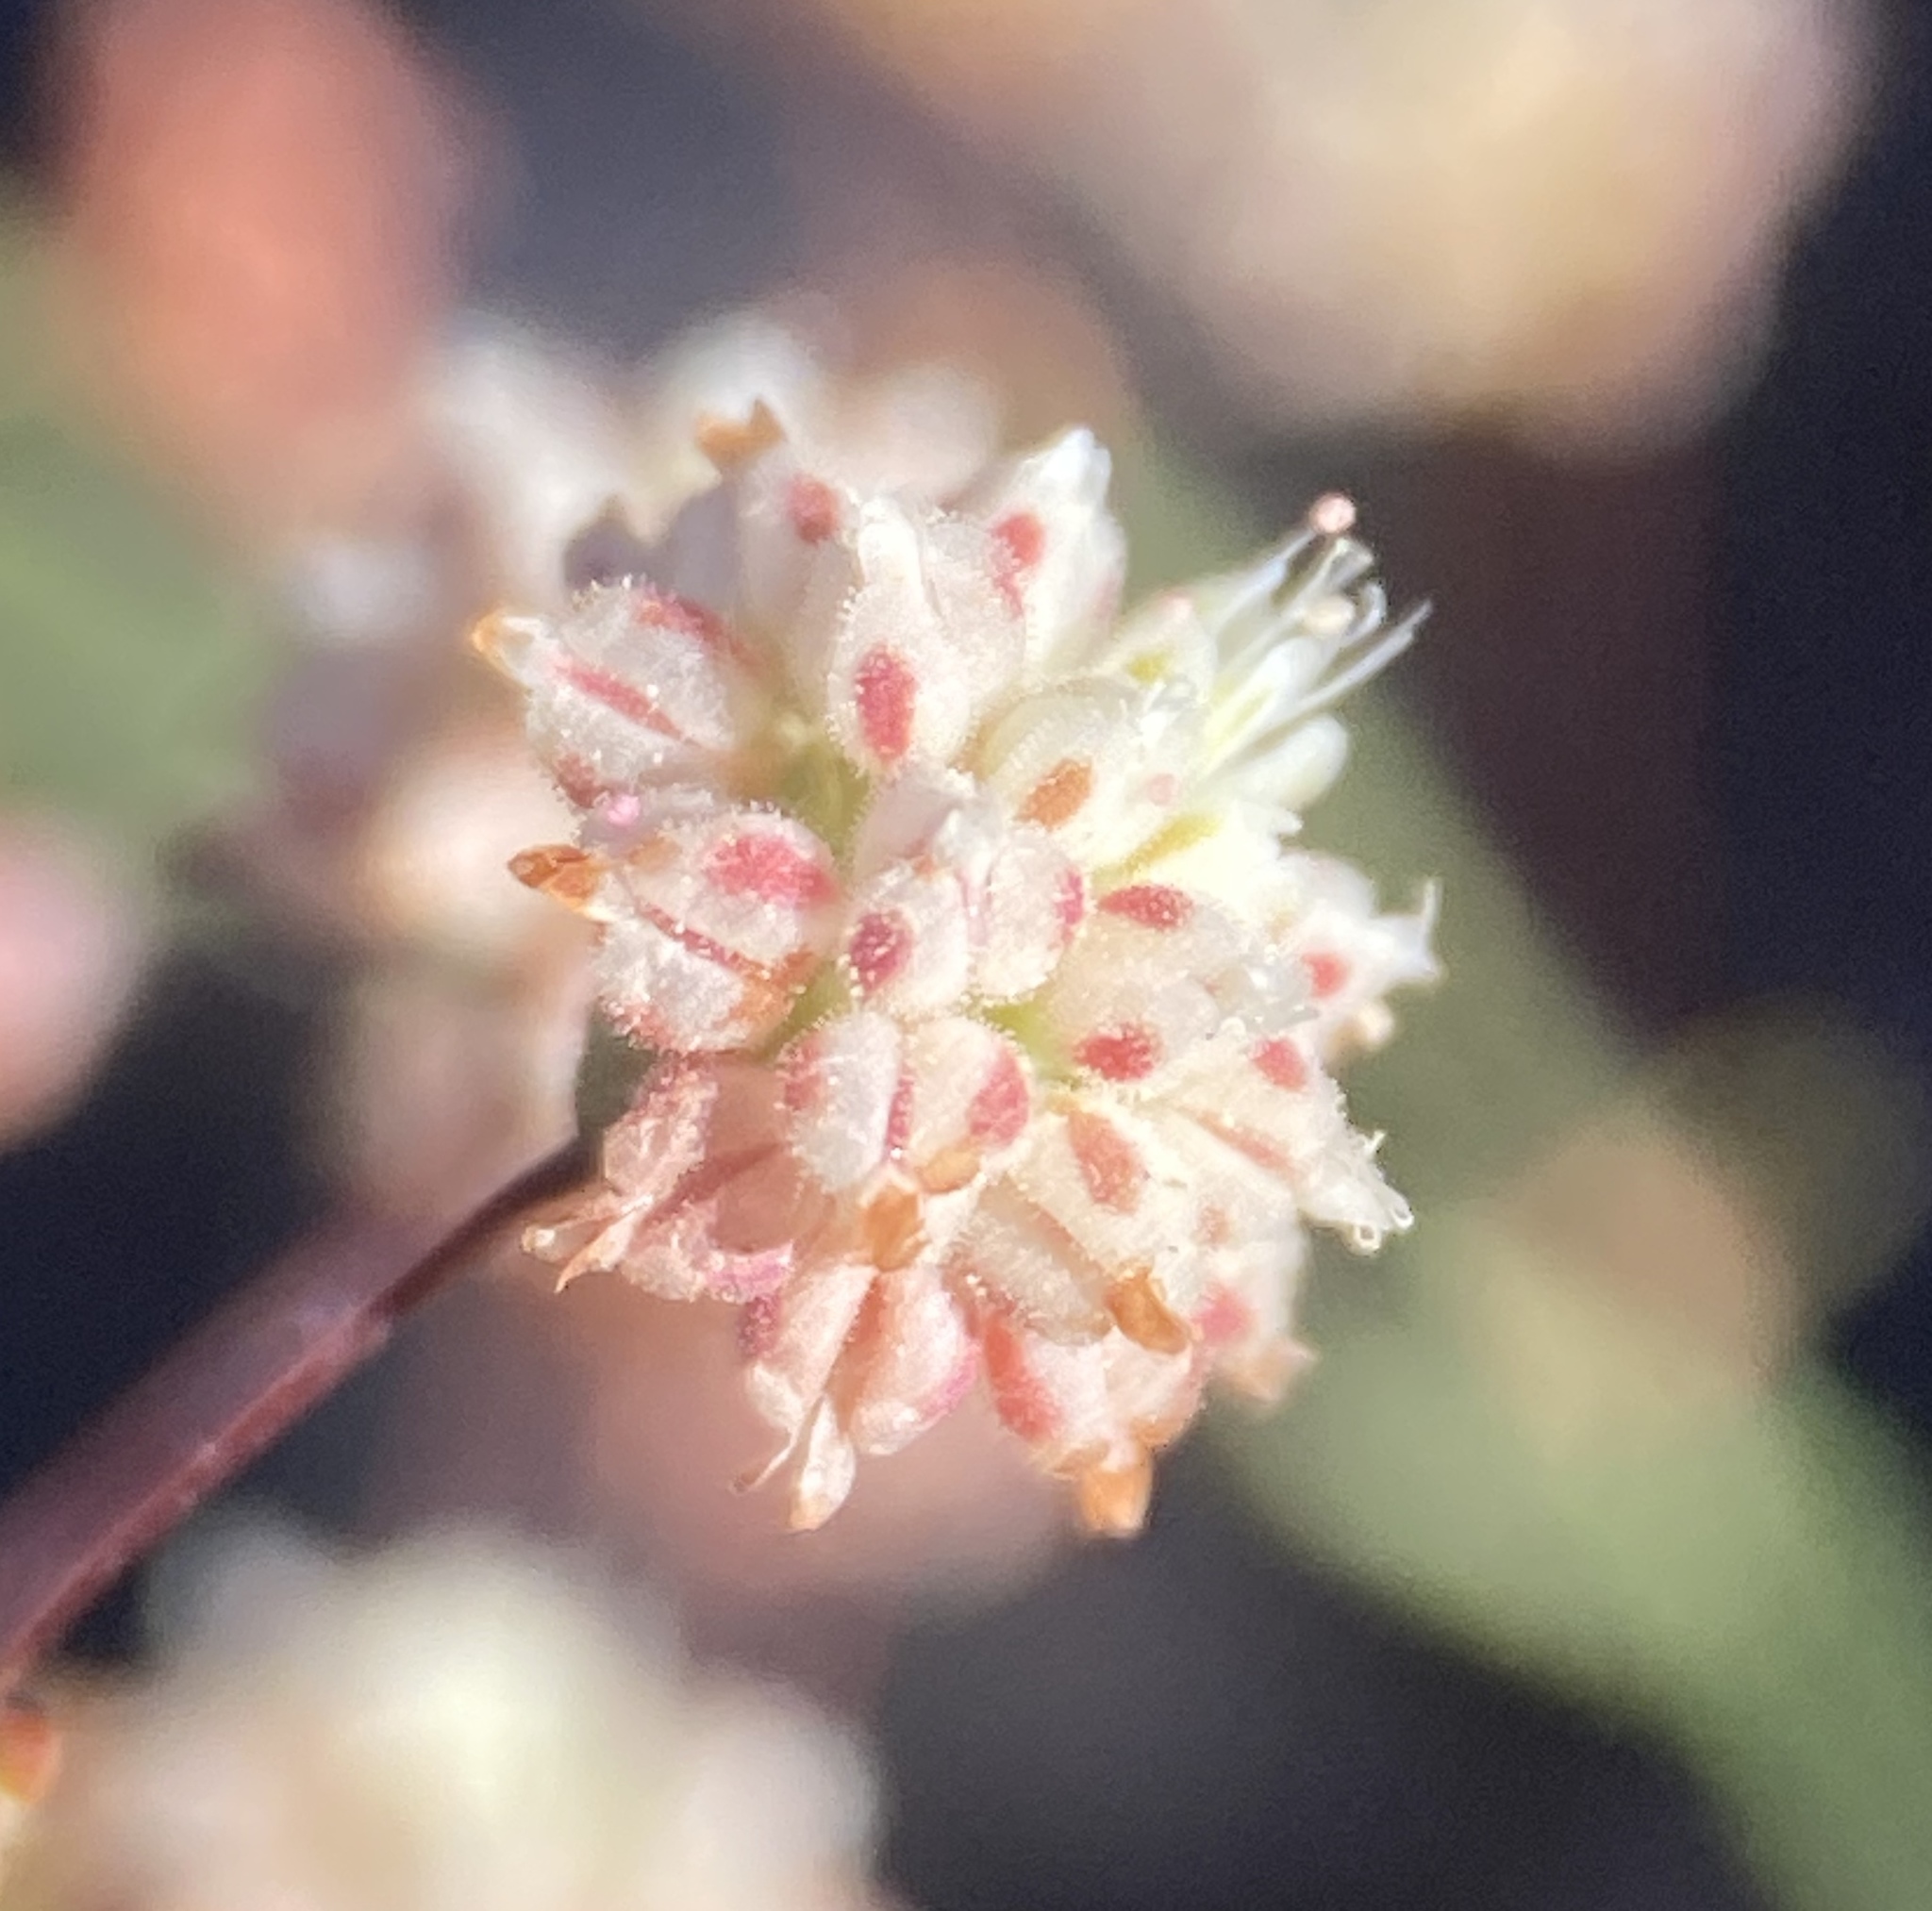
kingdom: Plantae
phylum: Tracheophyta
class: Magnoliopsida
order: Caryophyllales
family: Polygonaceae
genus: Eriogonum
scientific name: Eriogonum maculatum
